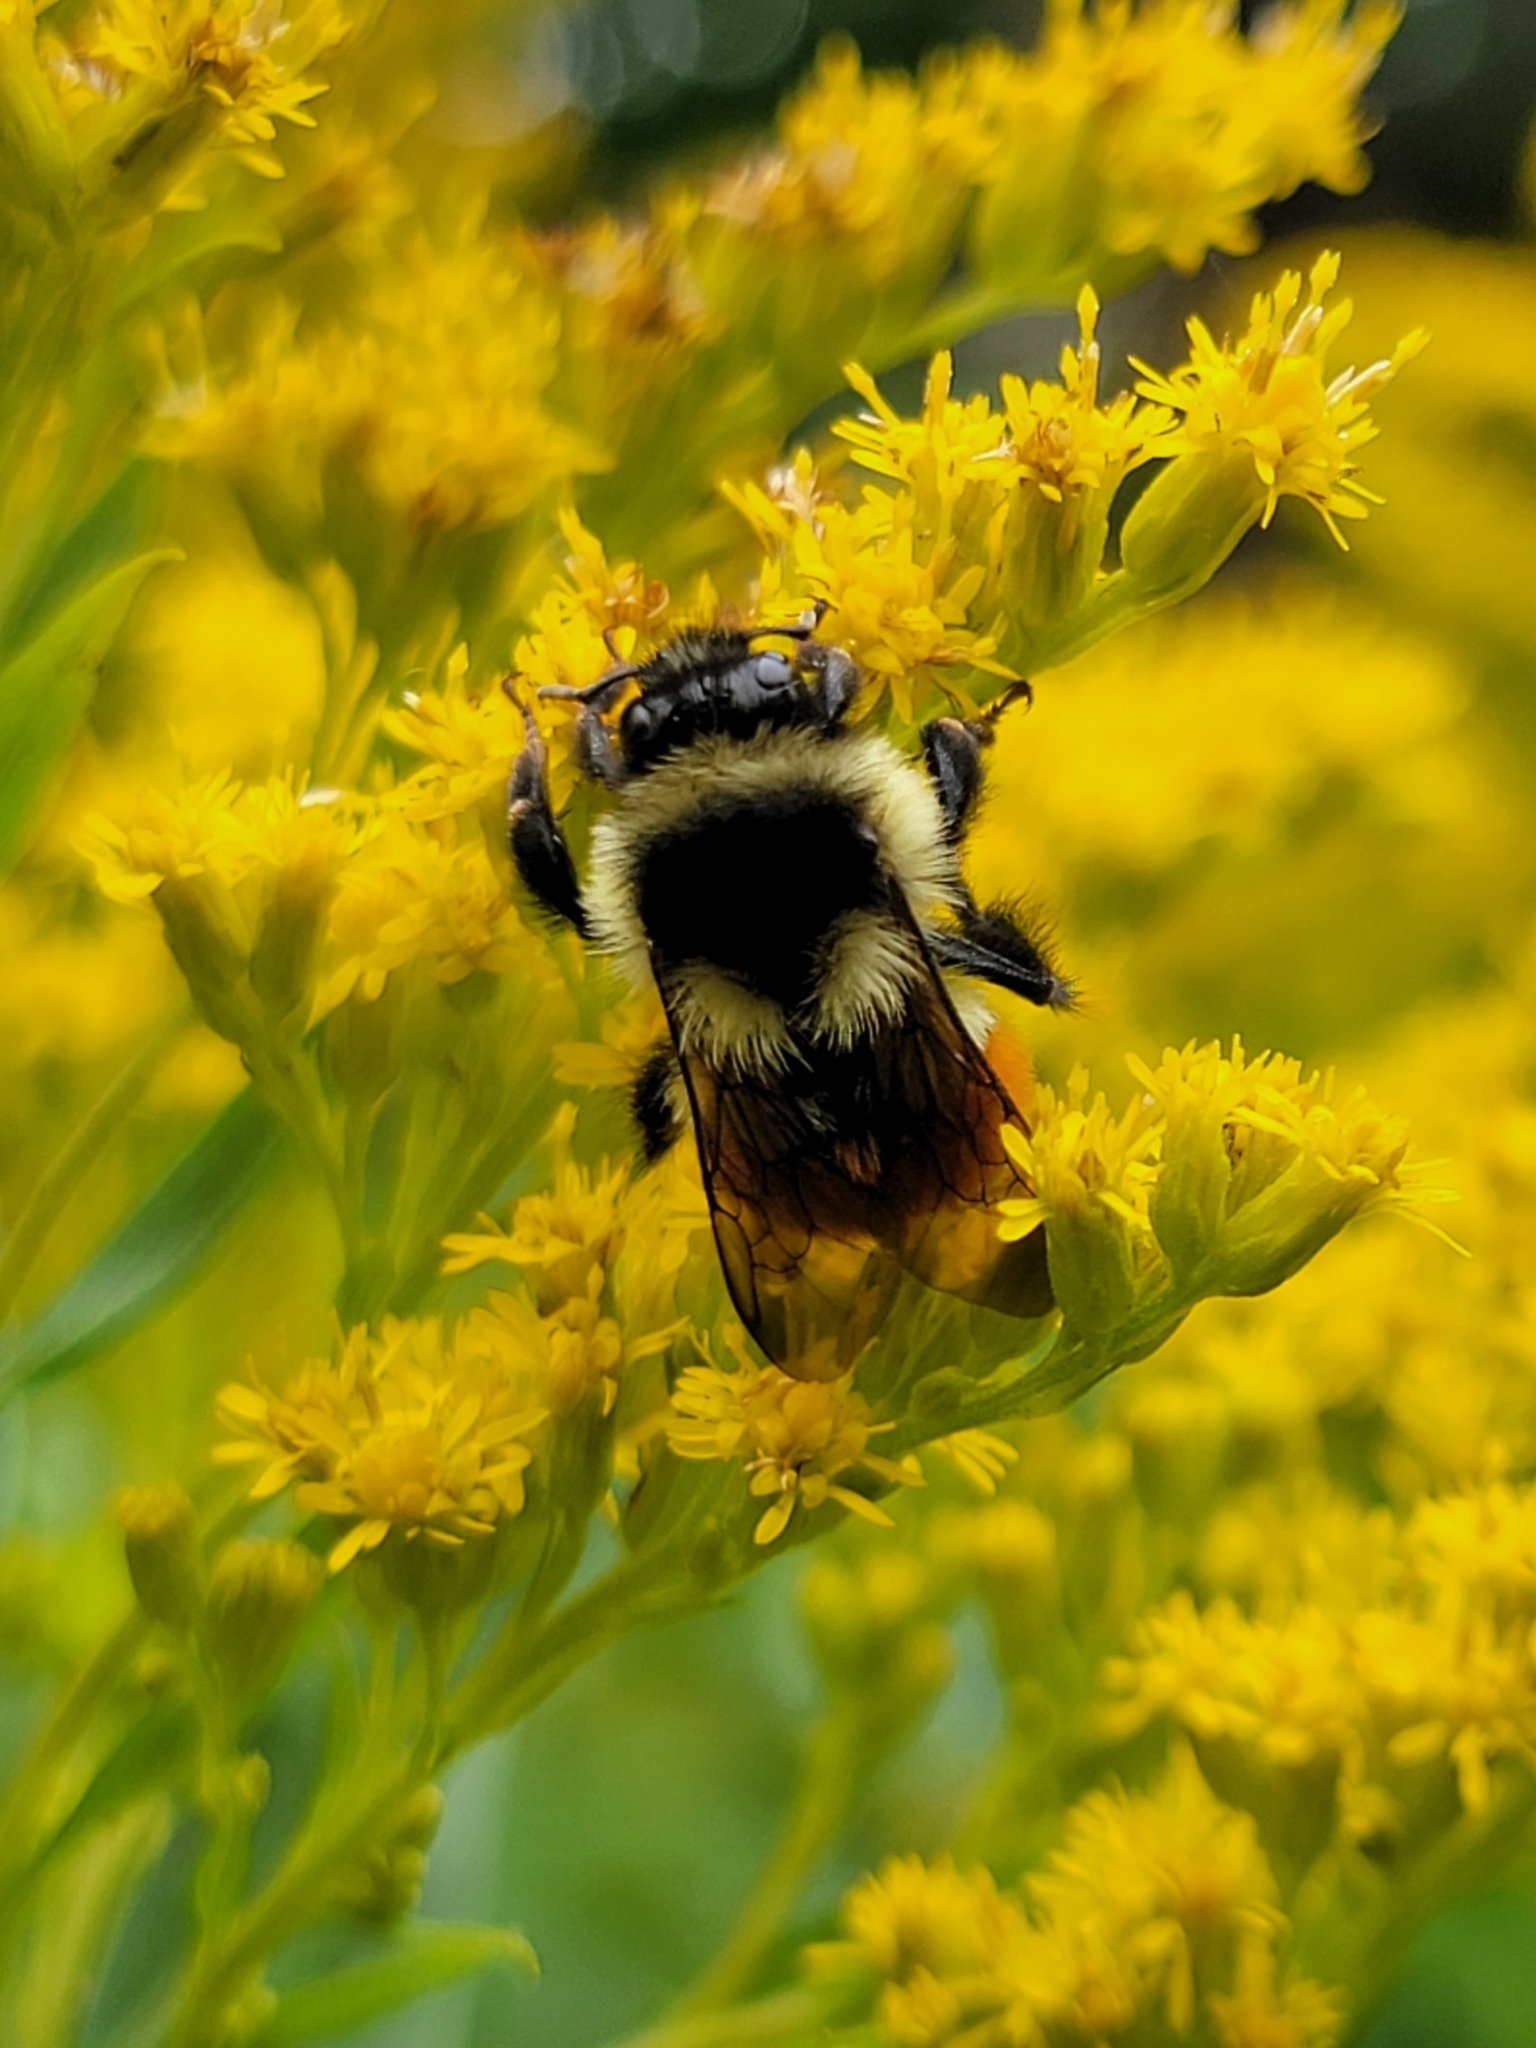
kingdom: Animalia
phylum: Arthropoda
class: Insecta
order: Hymenoptera
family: Apidae
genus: Bombus
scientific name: Bombus ternarius
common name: Tri-colored bumble bee
